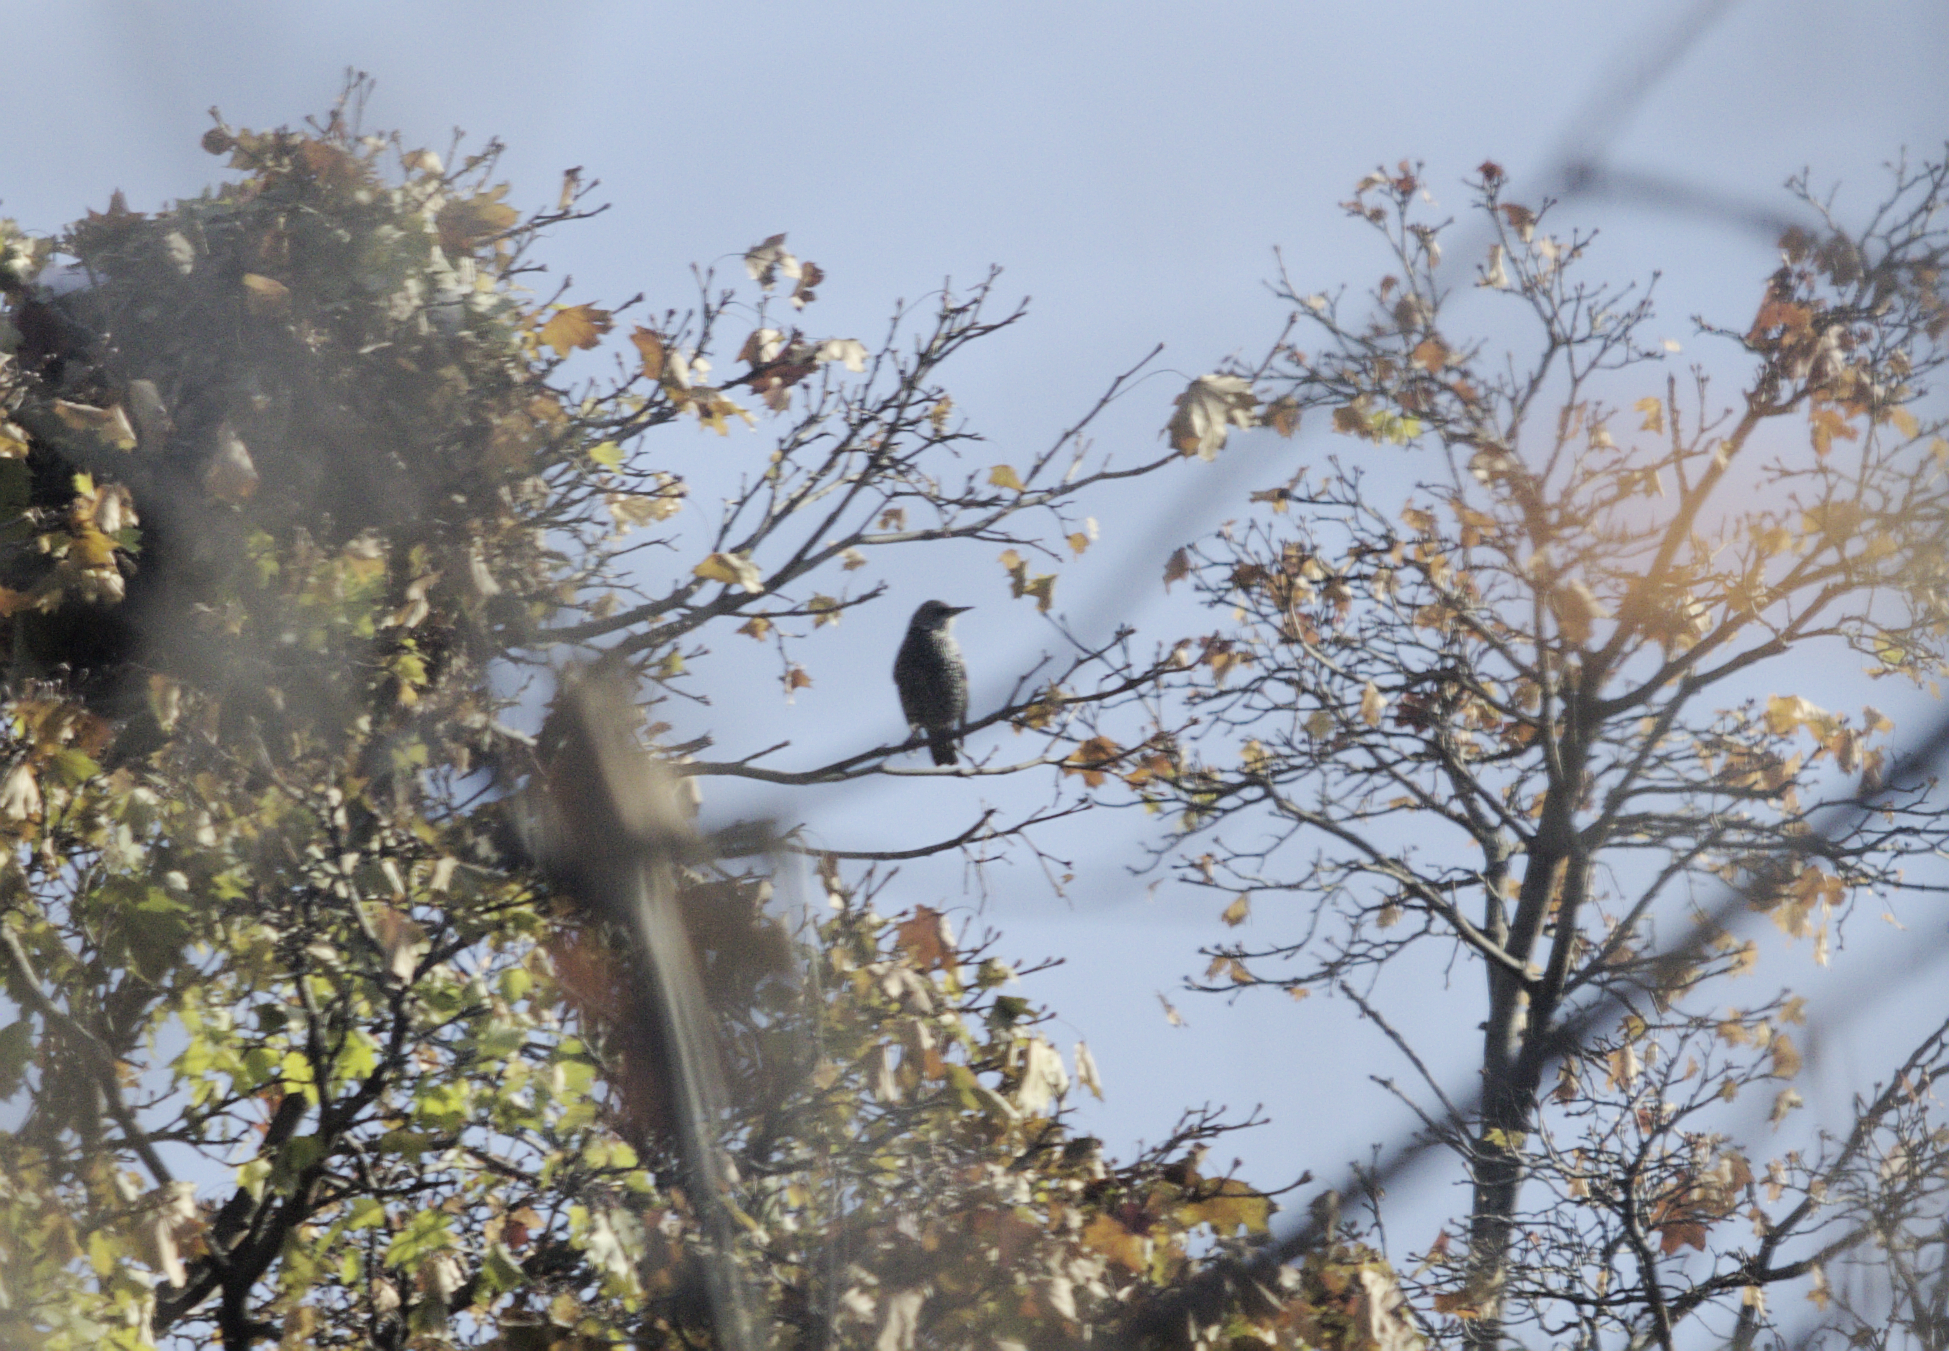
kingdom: Animalia
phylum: Chordata
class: Aves
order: Passeriformes
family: Sturnidae
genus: Sturnus
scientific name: Sturnus vulgaris
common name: Common starling
